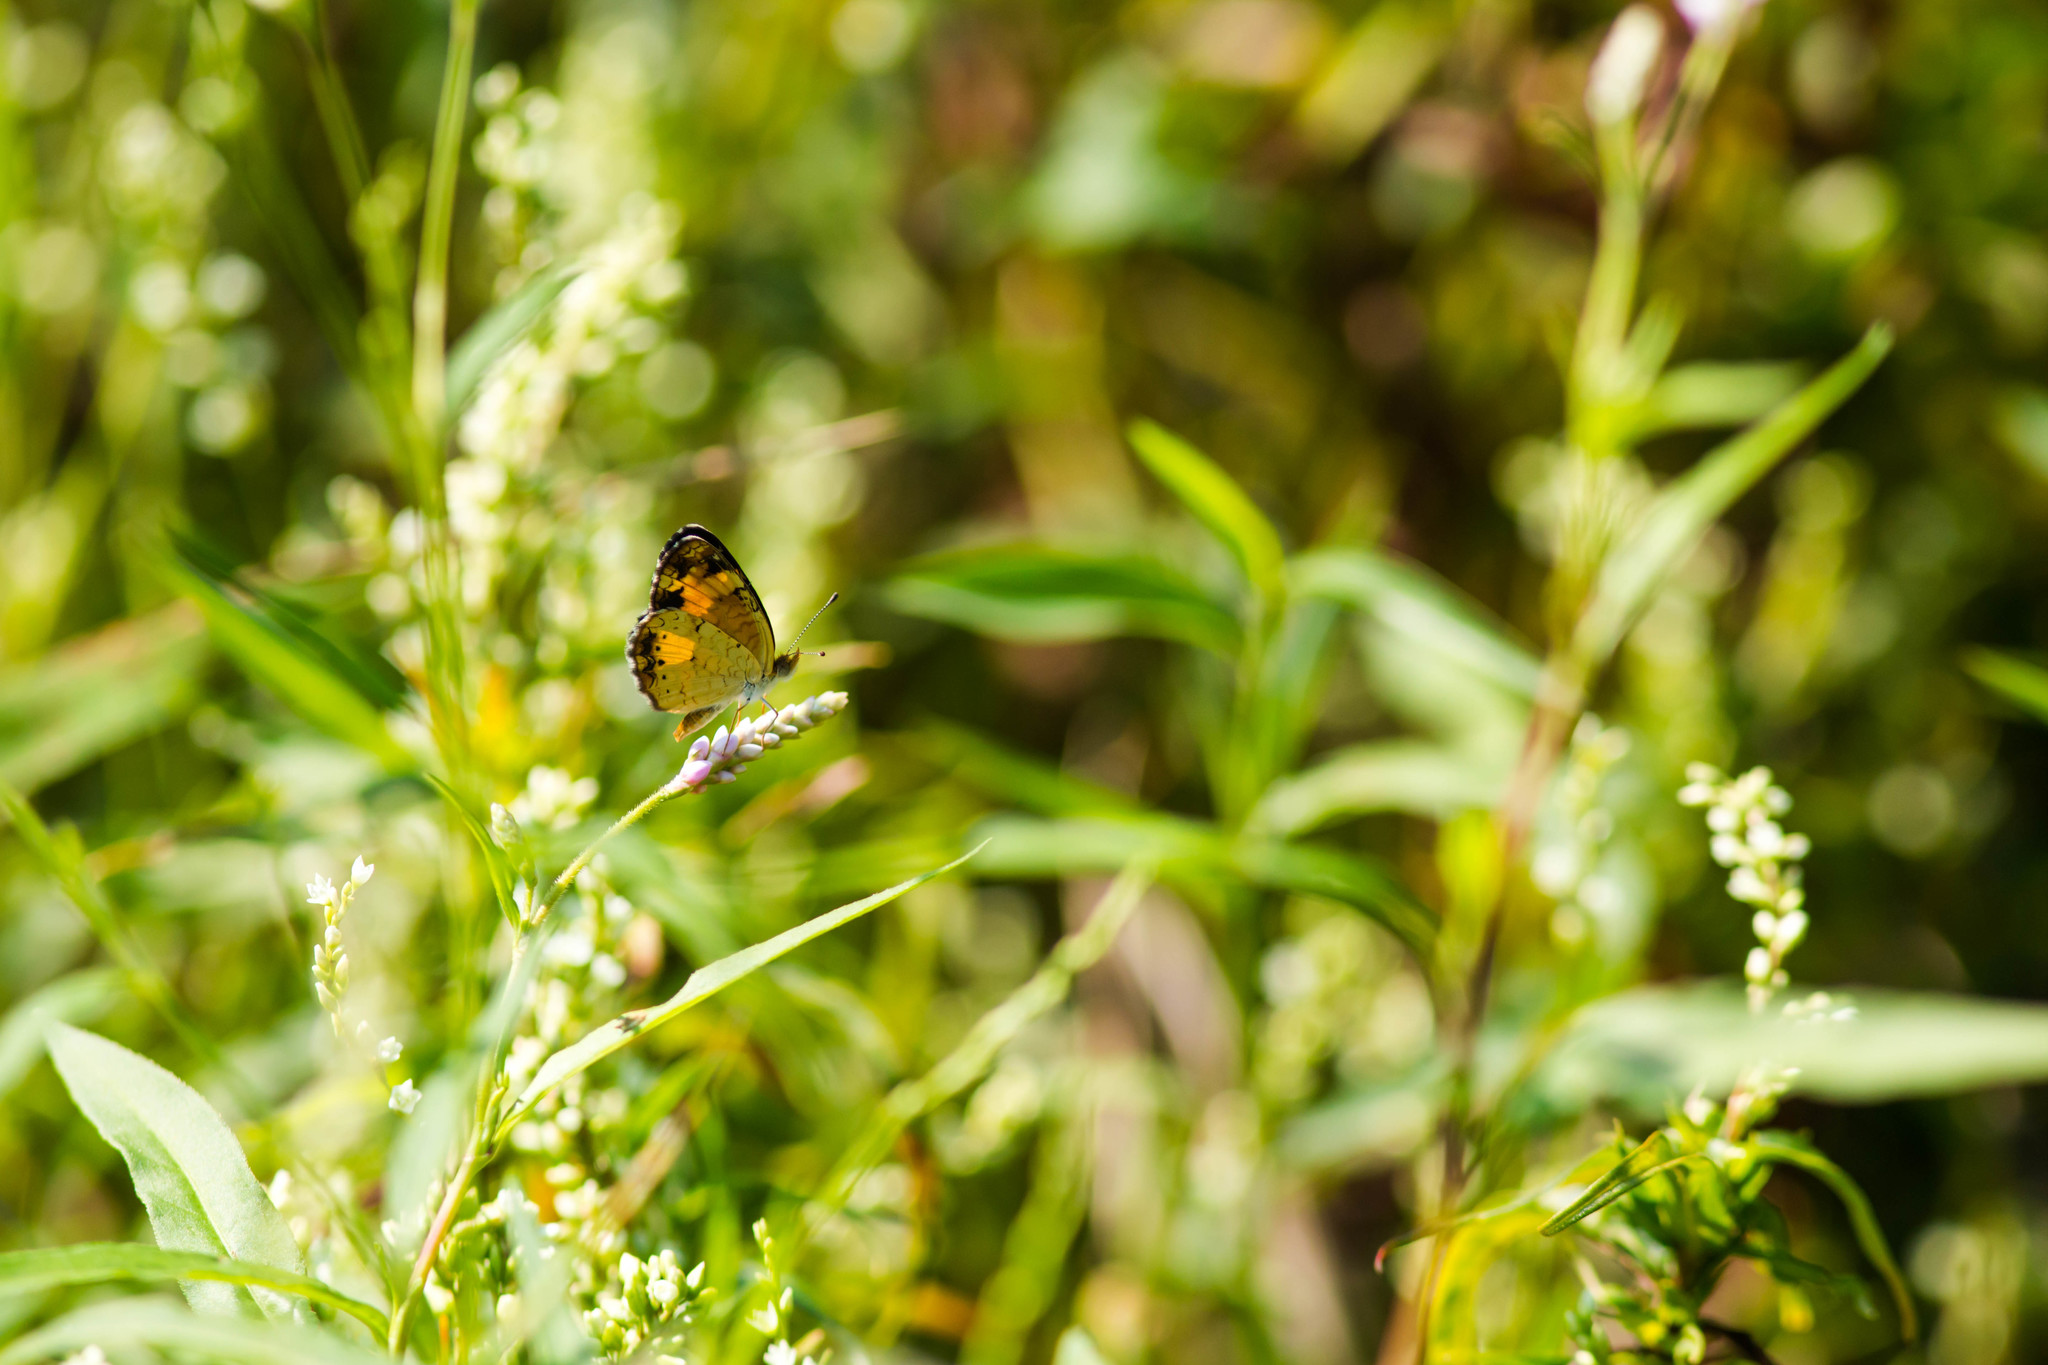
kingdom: Animalia
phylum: Arthropoda
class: Insecta
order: Lepidoptera
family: Nymphalidae
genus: Phyciodes
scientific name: Phyciodes tharos
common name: Pearl crescent
